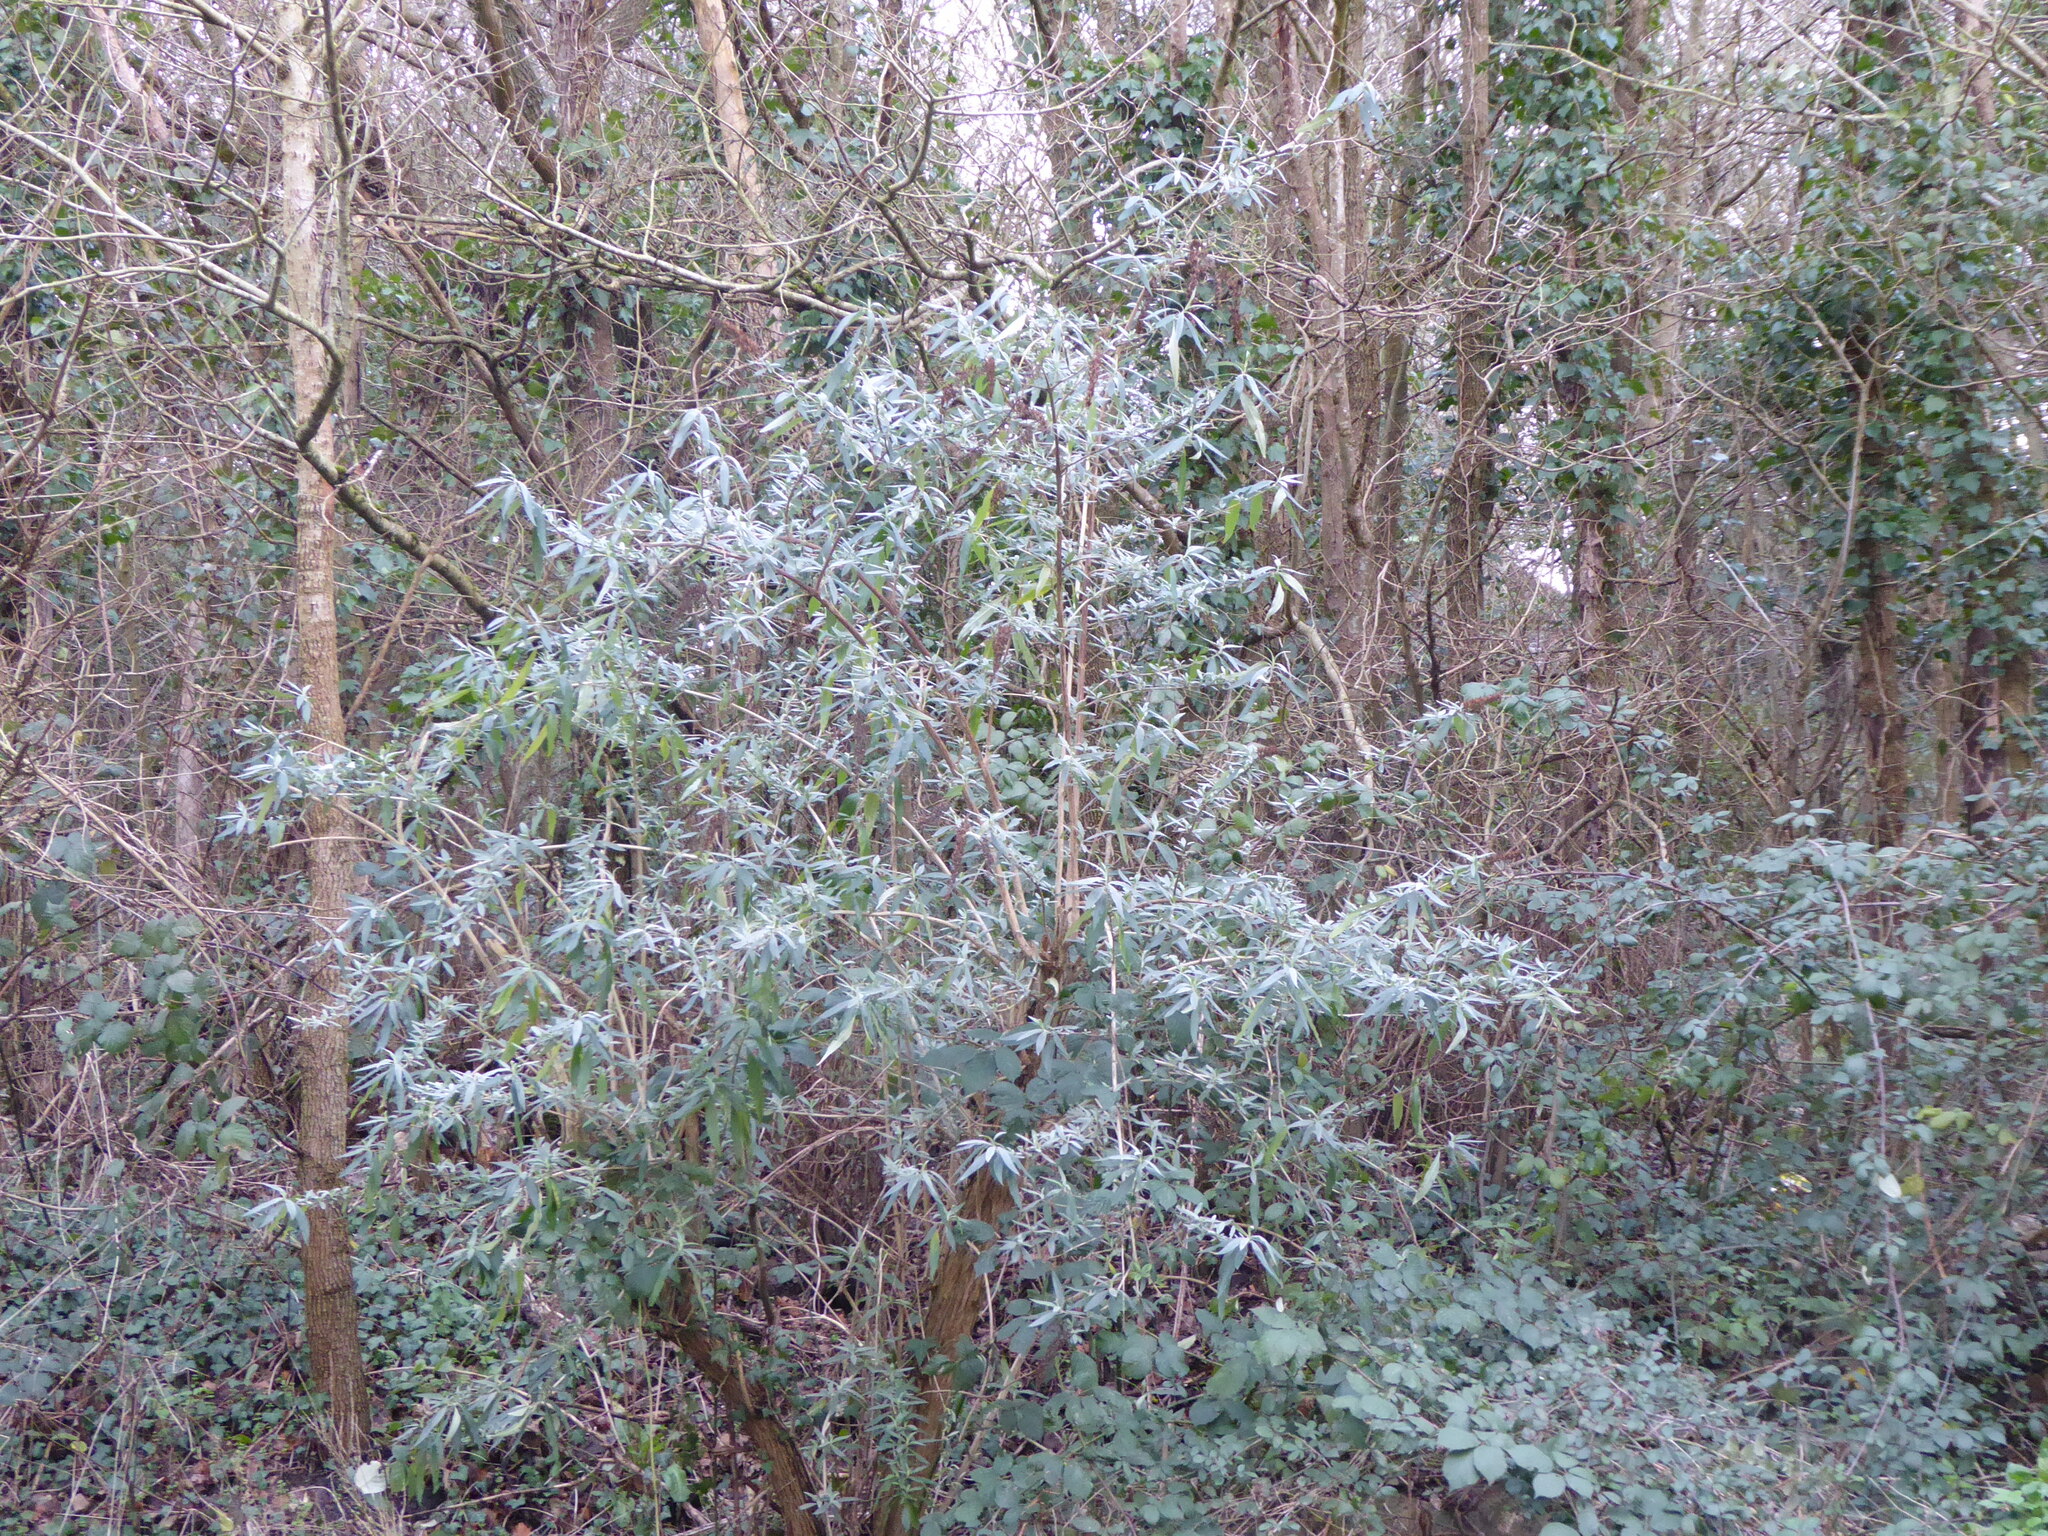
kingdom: Plantae
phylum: Tracheophyta
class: Magnoliopsida
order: Lamiales
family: Scrophulariaceae
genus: Buddleja
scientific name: Buddleja davidii
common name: Butterfly-bush
